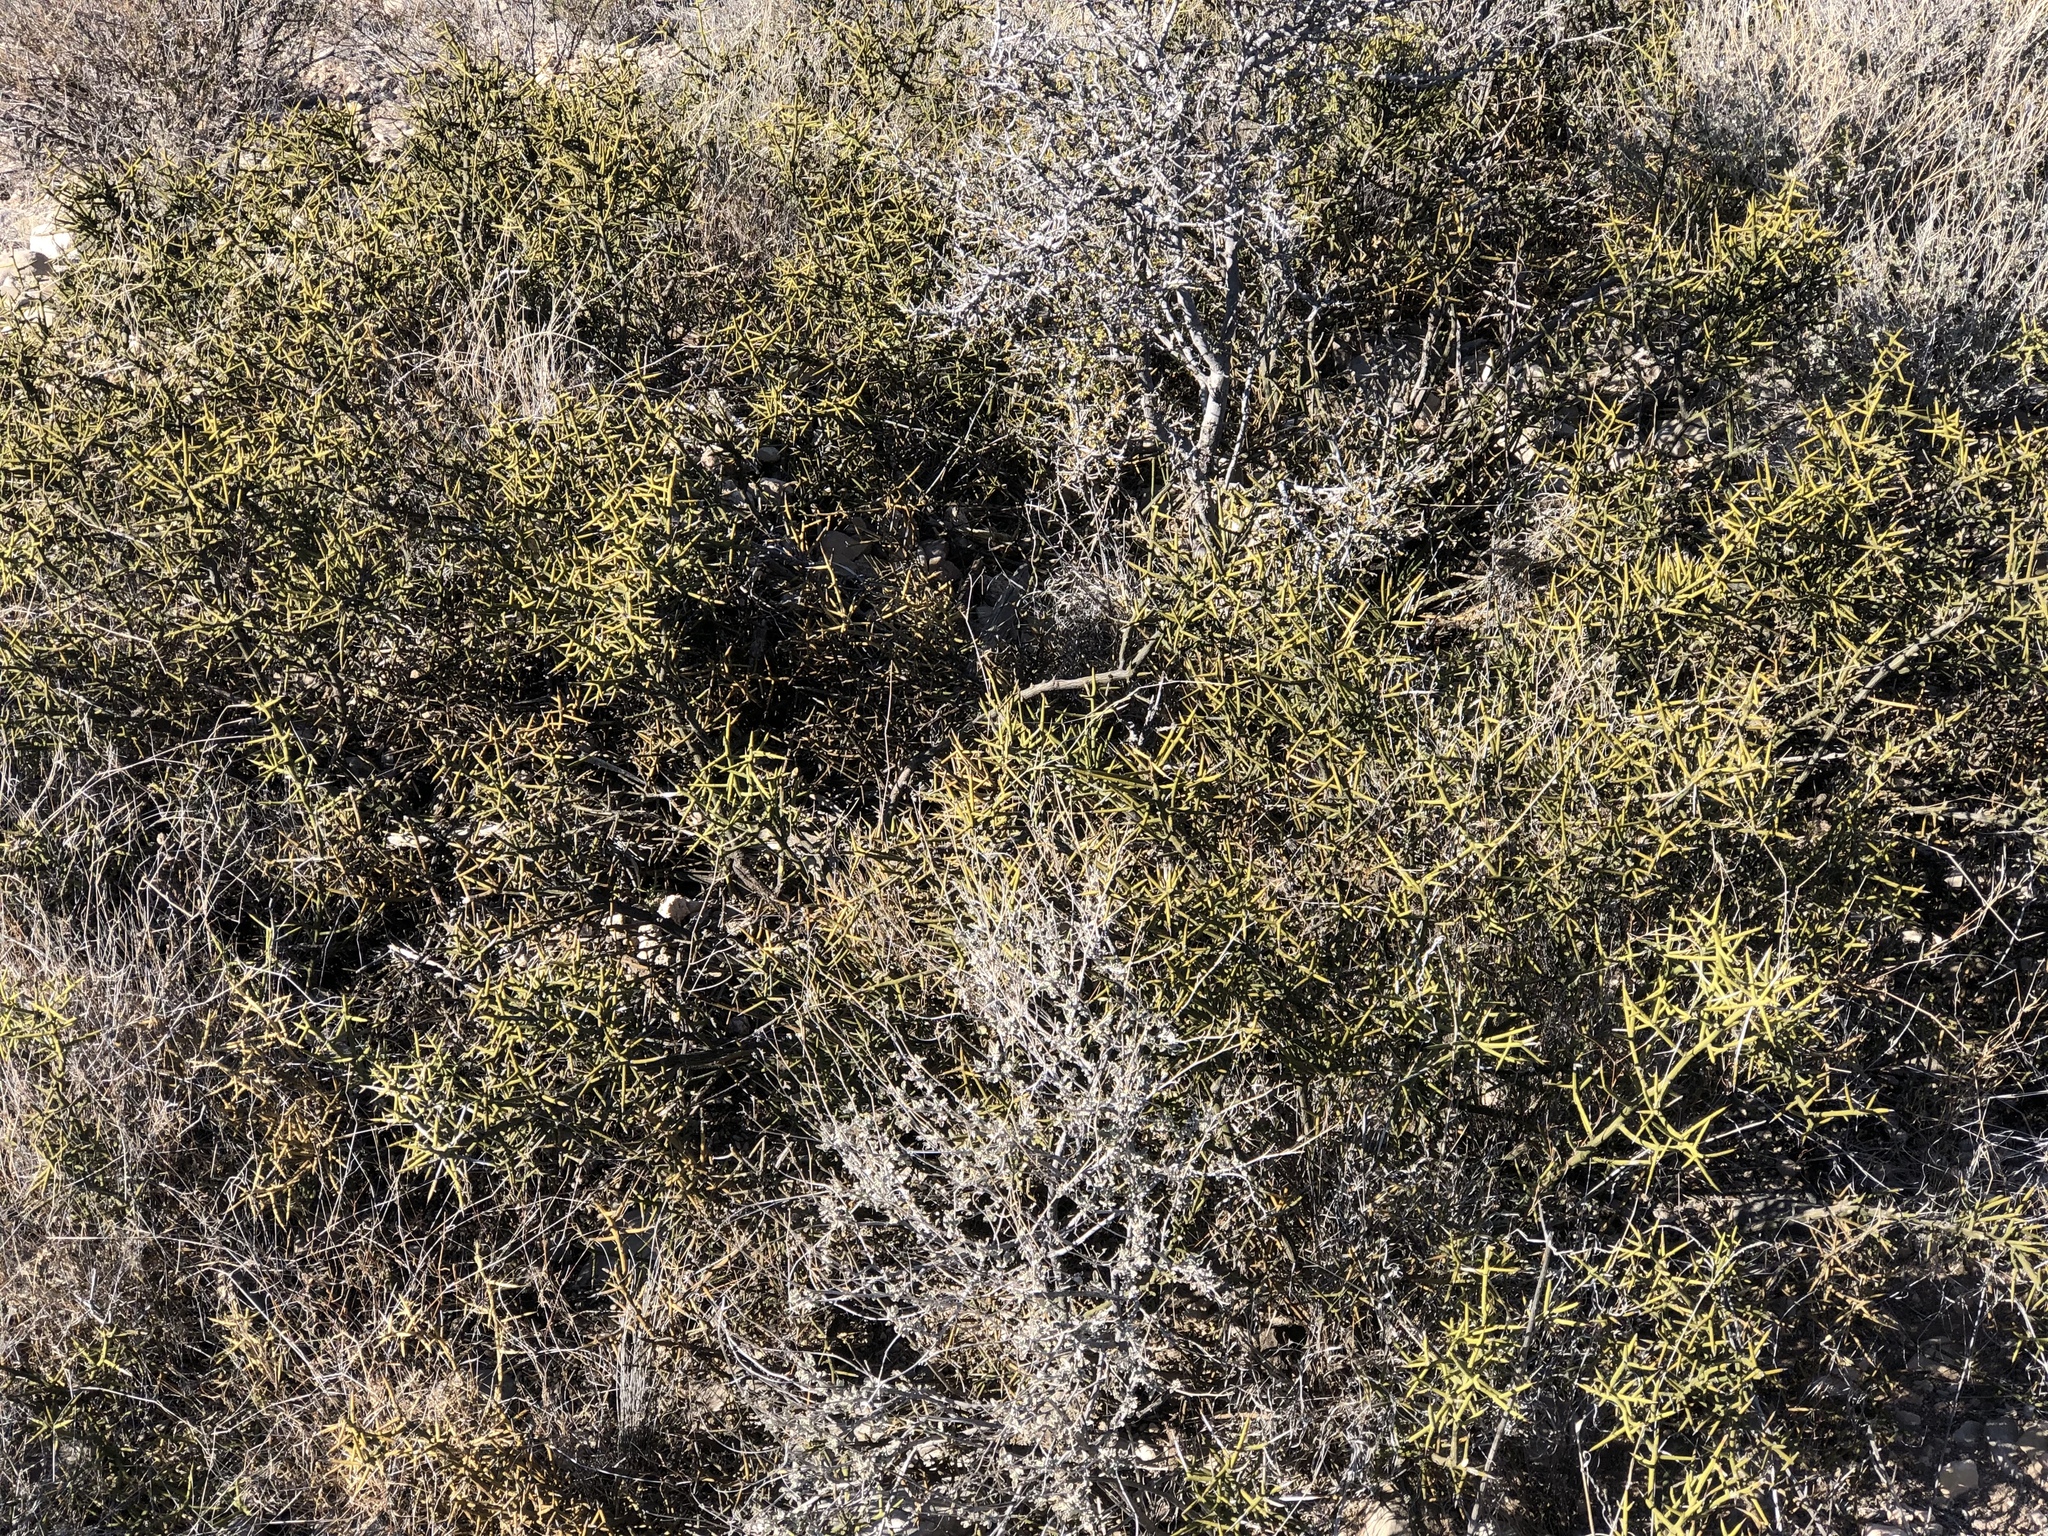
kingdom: Plantae
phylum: Tracheophyta
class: Magnoliopsida
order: Brassicales
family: Koeberliniaceae
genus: Koeberlinia
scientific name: Koeberlinia spinosa
